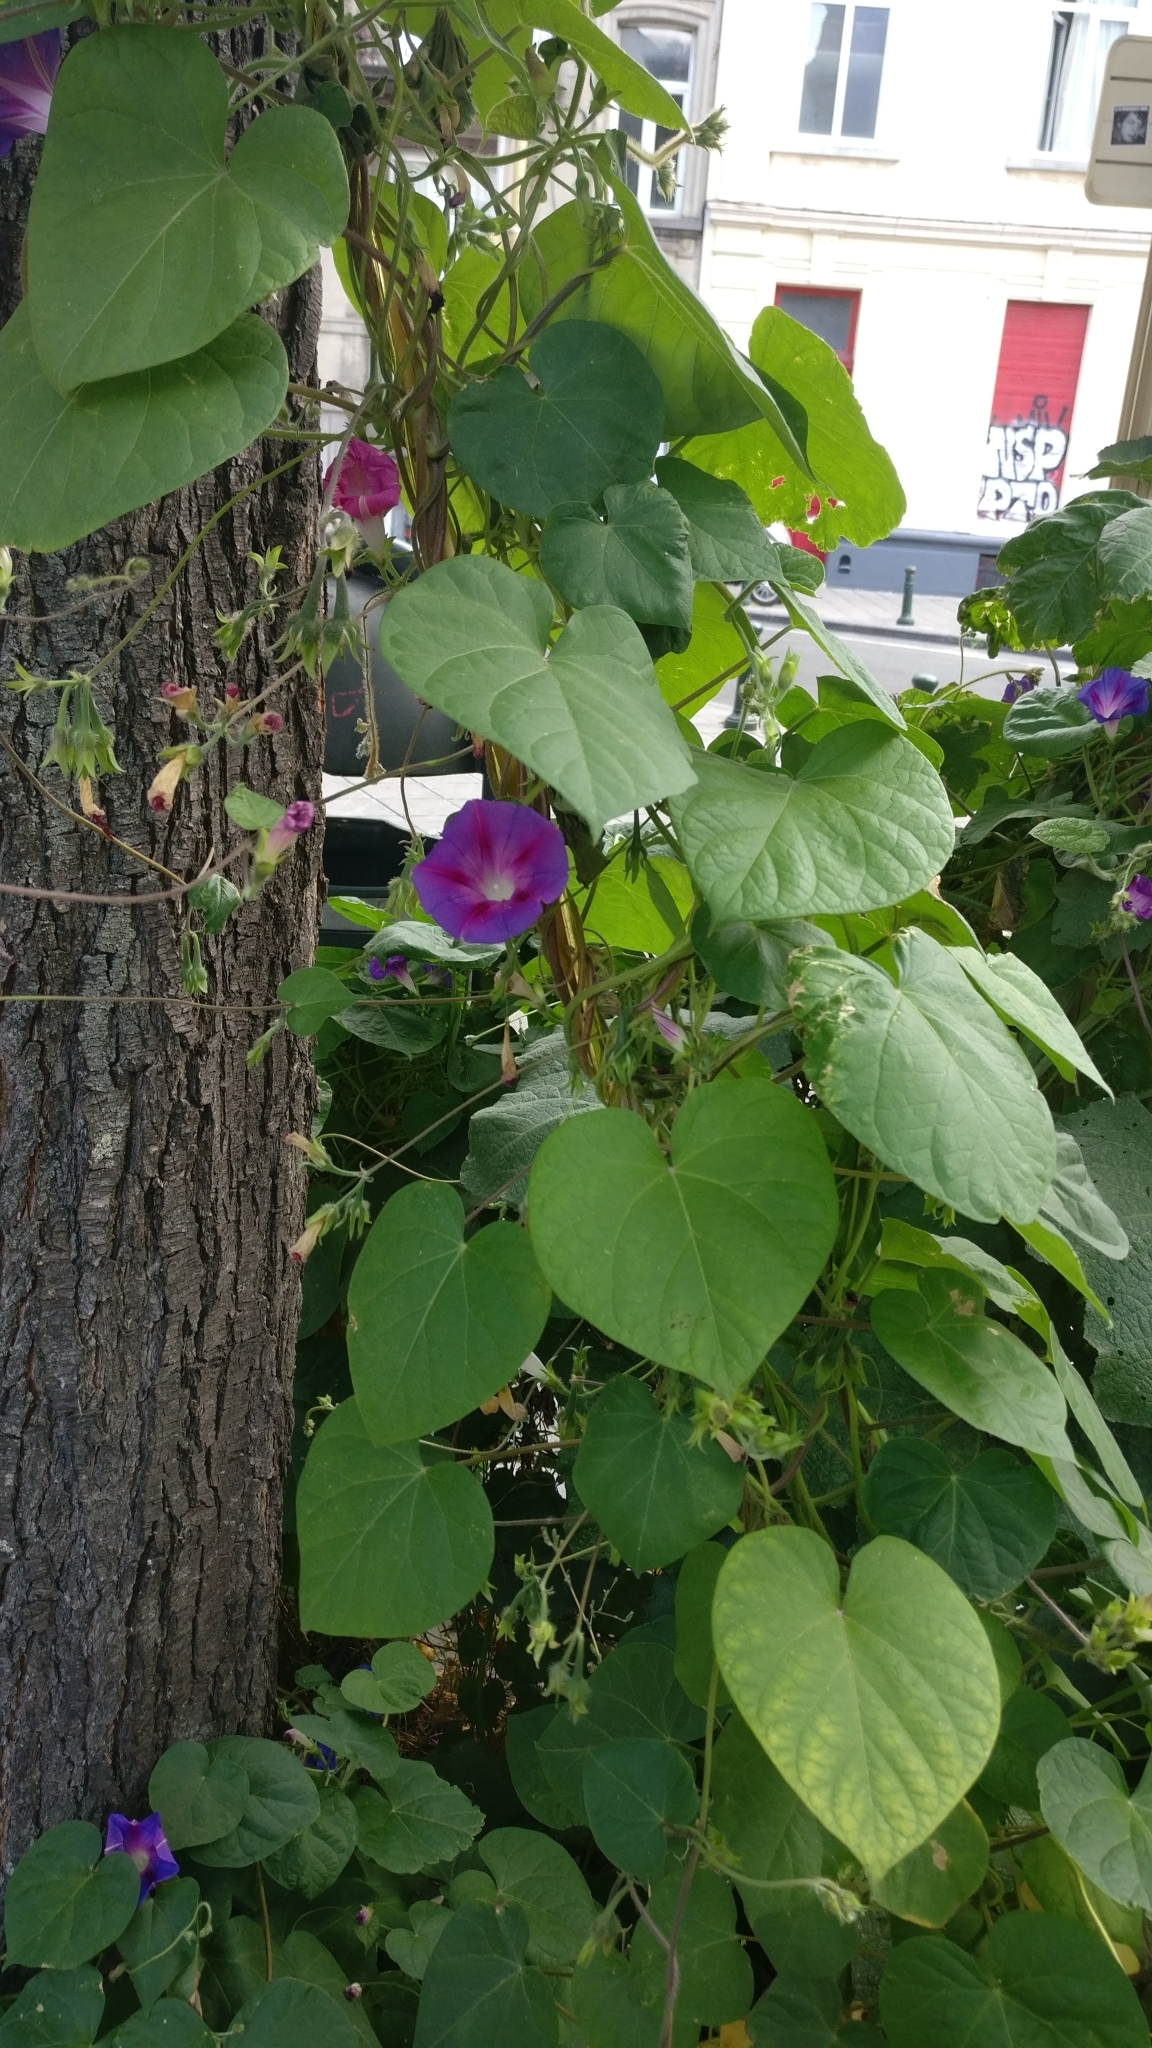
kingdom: Plantae
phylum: Tracheophyta
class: Magnoliopsida
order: Solanales
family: Convolvulaceae
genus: Ipomoea
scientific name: Ipomoea purpurea
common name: Common morning-glory
